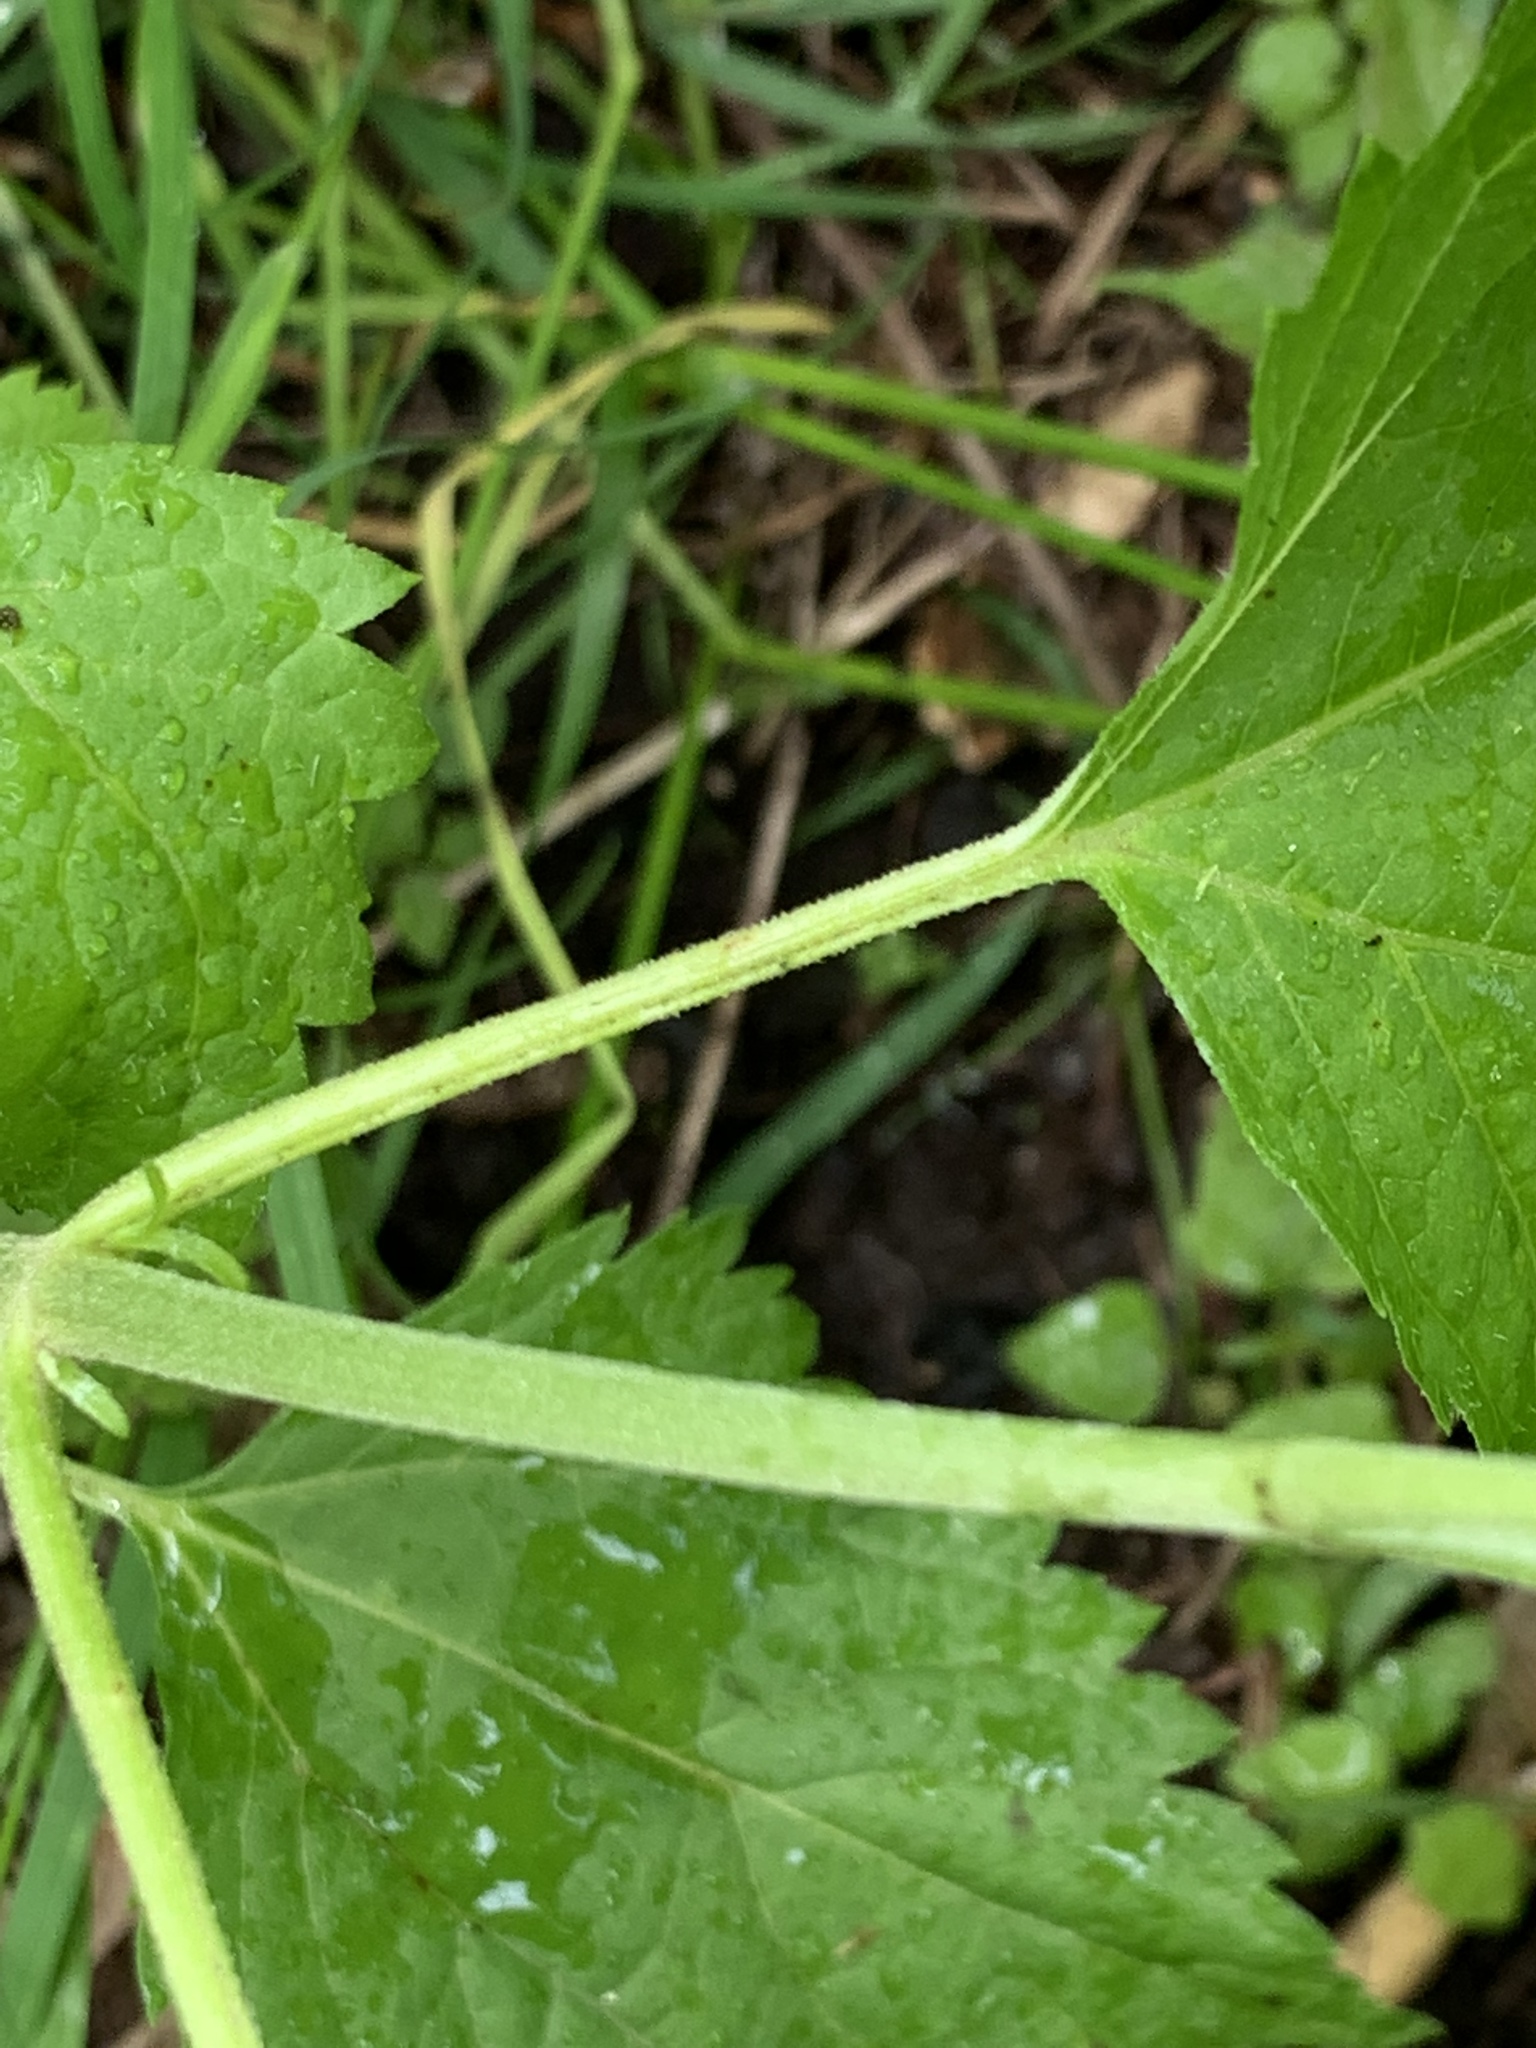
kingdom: Plantae
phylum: Tracheophyta
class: Magnoliopsida
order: Asterales
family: Asteraceae
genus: Ageratina
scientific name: Ageratina altissima
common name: White snakeroot
